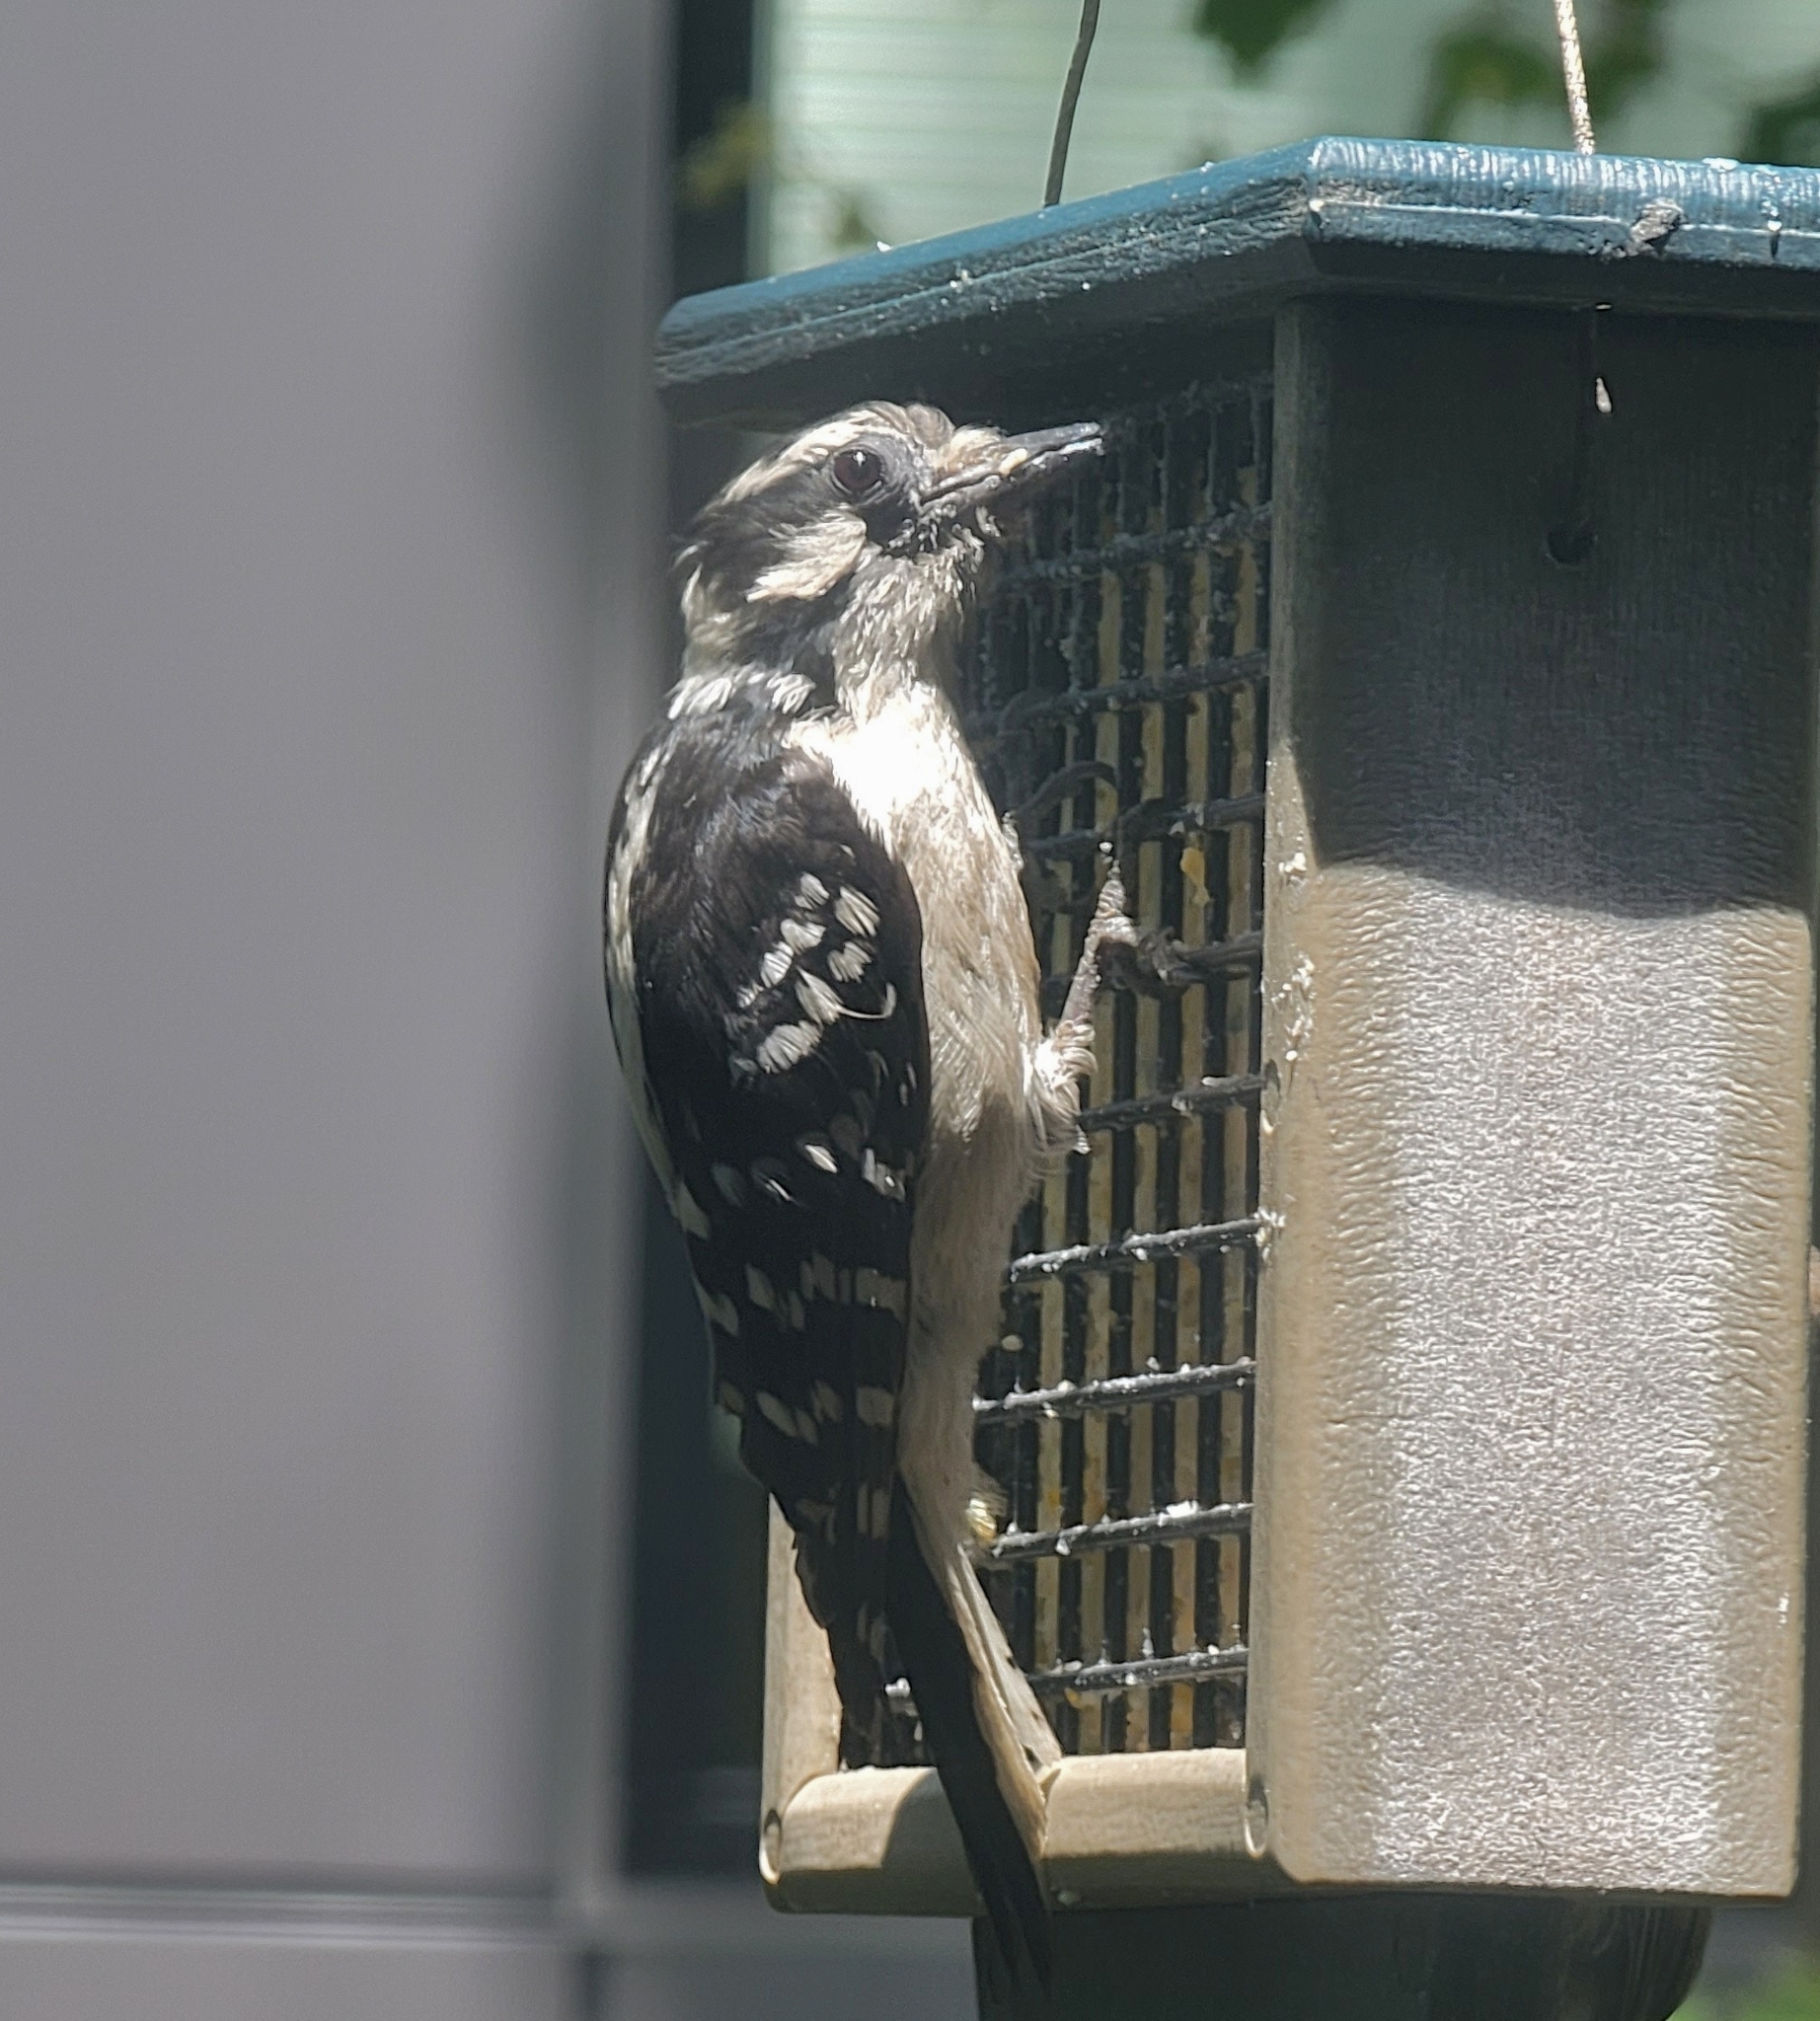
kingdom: Animalia
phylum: Chordata
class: Aves
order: Piciformes
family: Picidae
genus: Dryobates
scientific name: Dryobates pubescens
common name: Downy woodpecker
